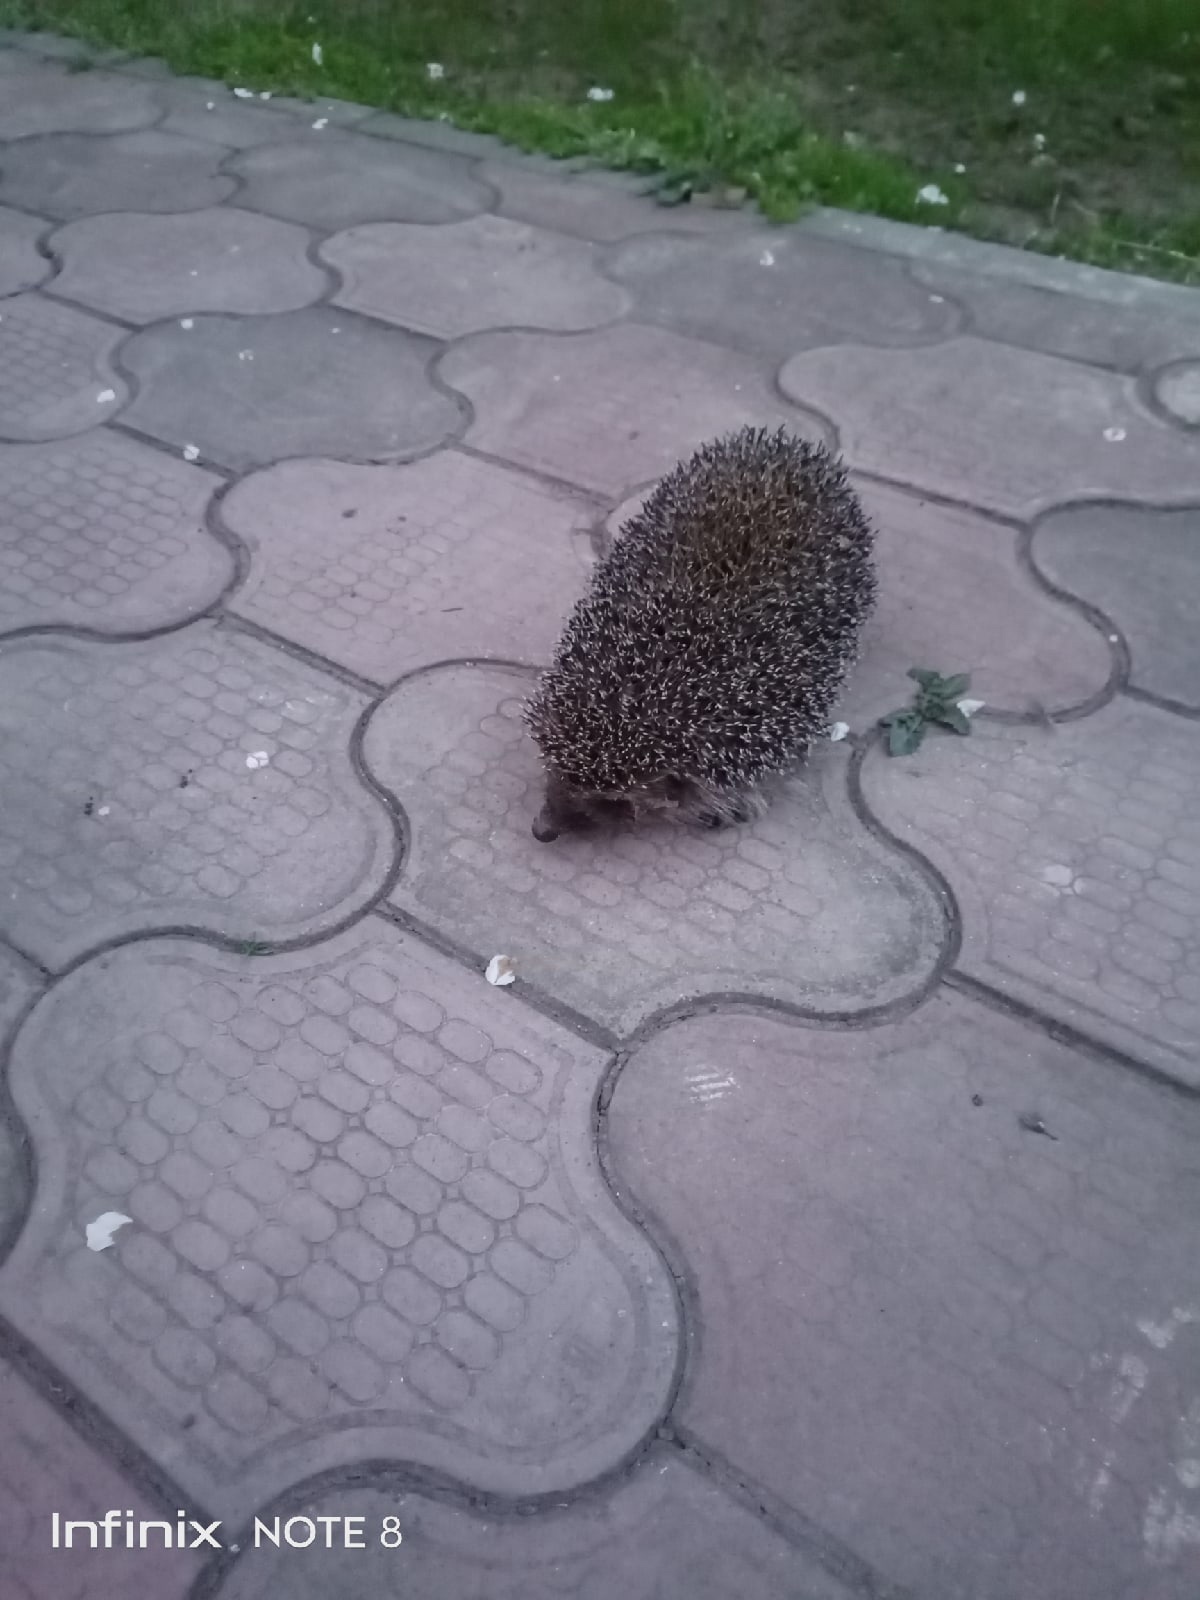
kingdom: Animalia
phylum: Chordata
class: Mammalia
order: Erinaceomorpha
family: Erinaceidae
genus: Erinaceus
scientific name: Erinaceus roumanicus
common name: Northern white-breasted hedgehog
